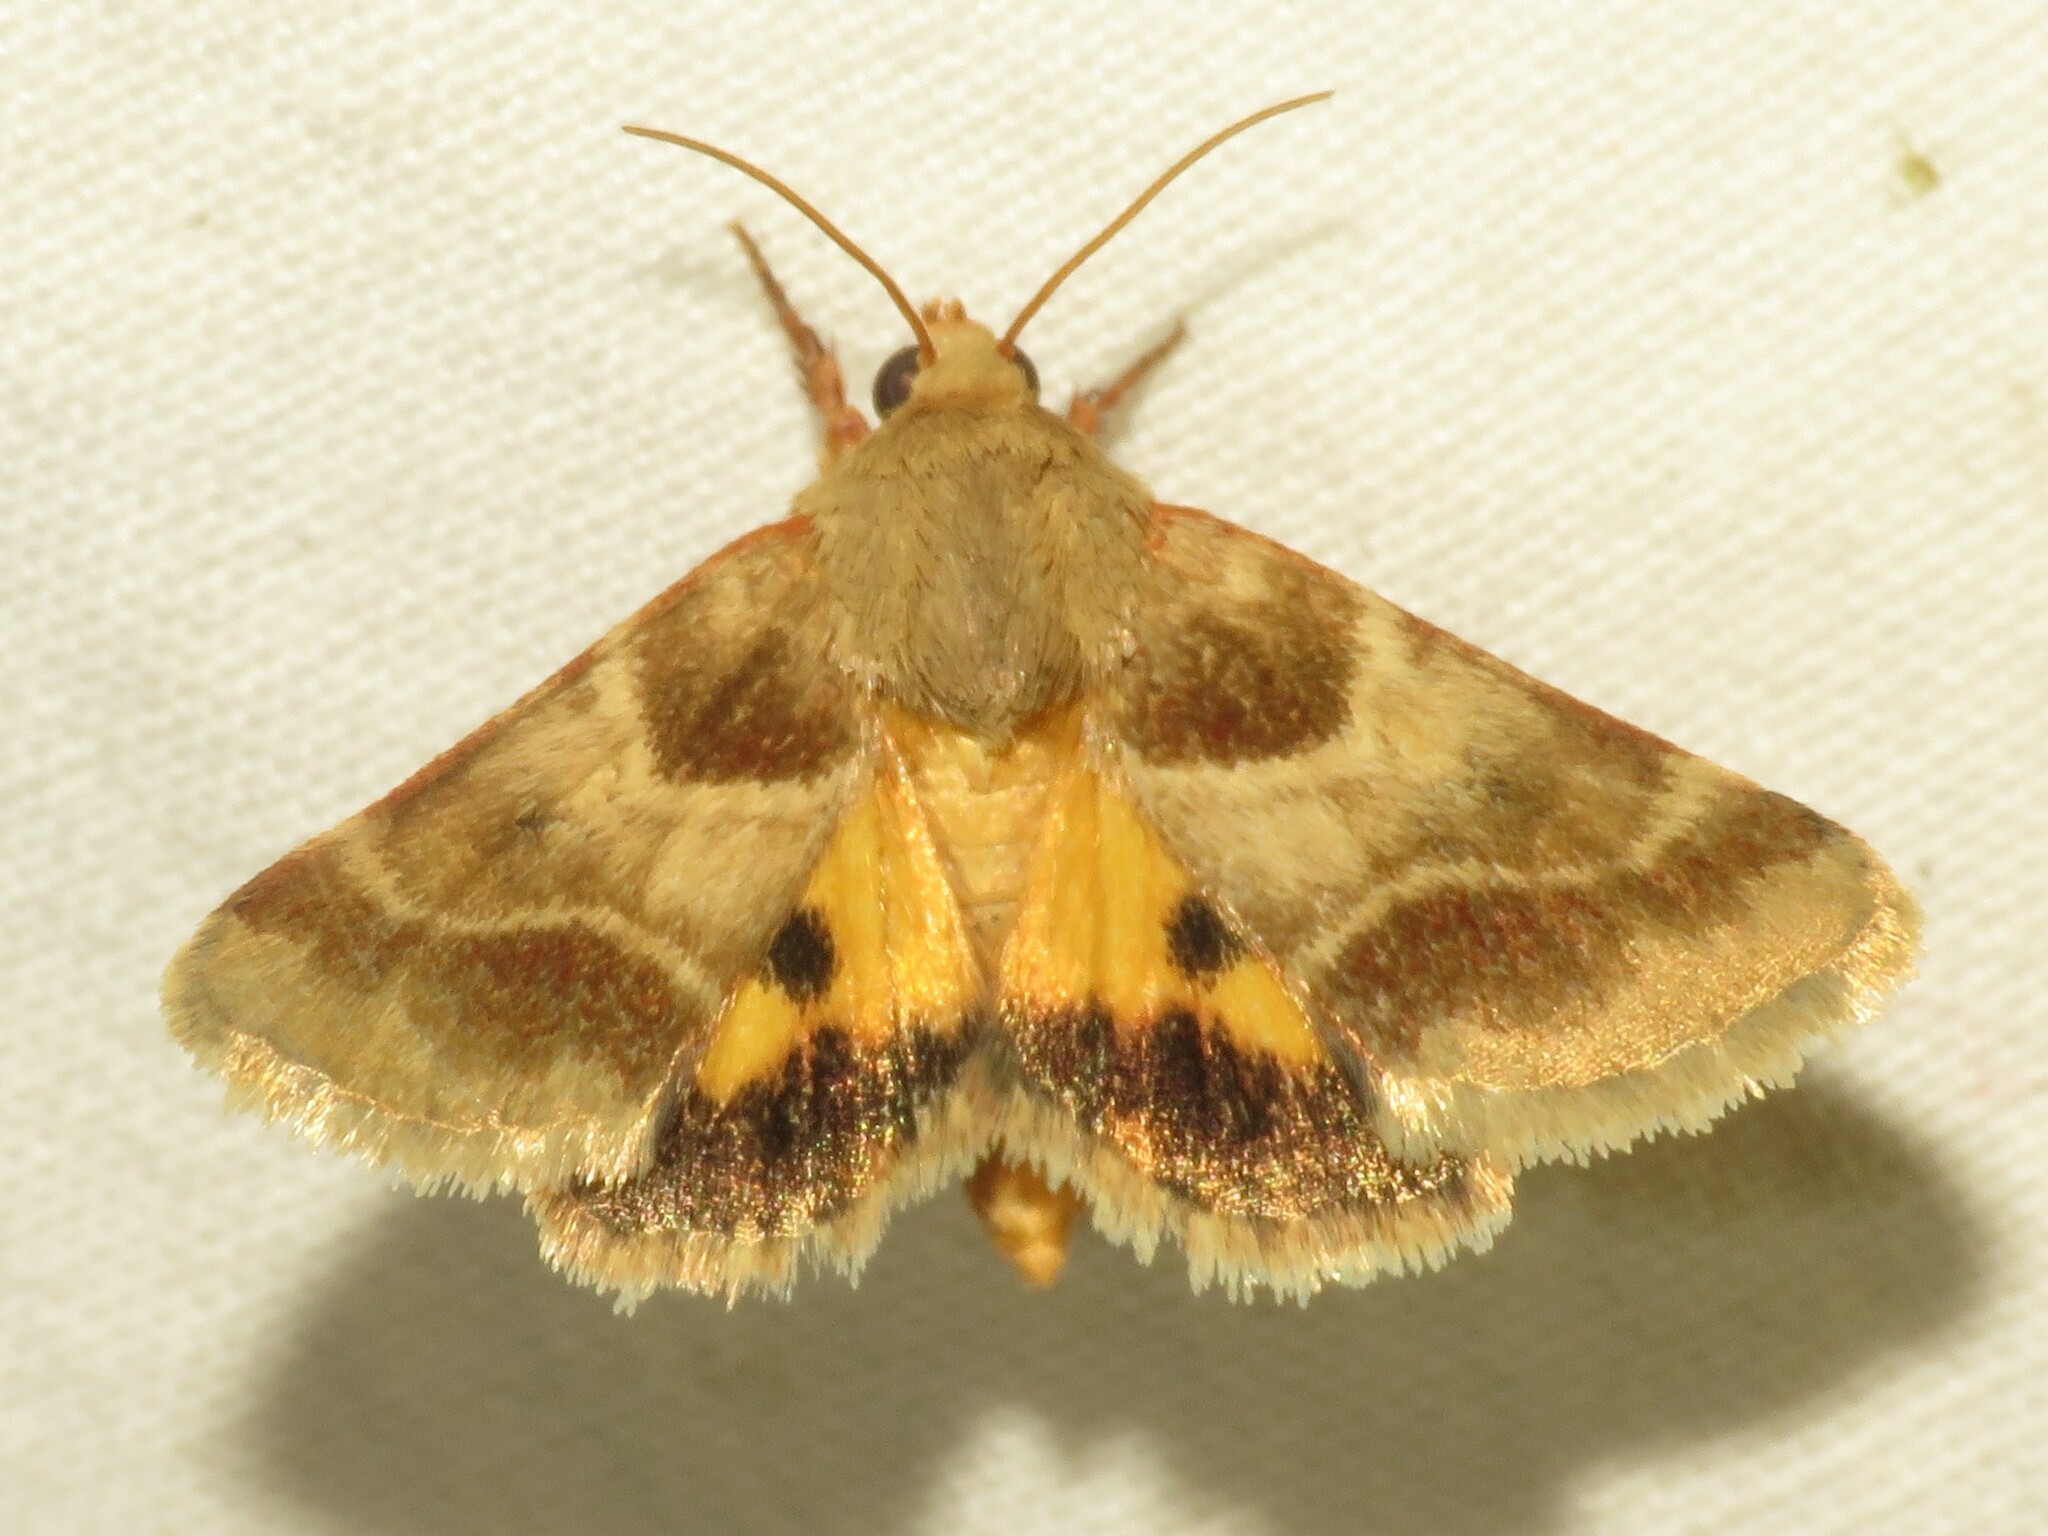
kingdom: Animalia
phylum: Arthropoda
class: Insecta
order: Lepidoptera
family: Noctuidae
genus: Schinia
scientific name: Schinia lynx
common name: Lynx flower moth
